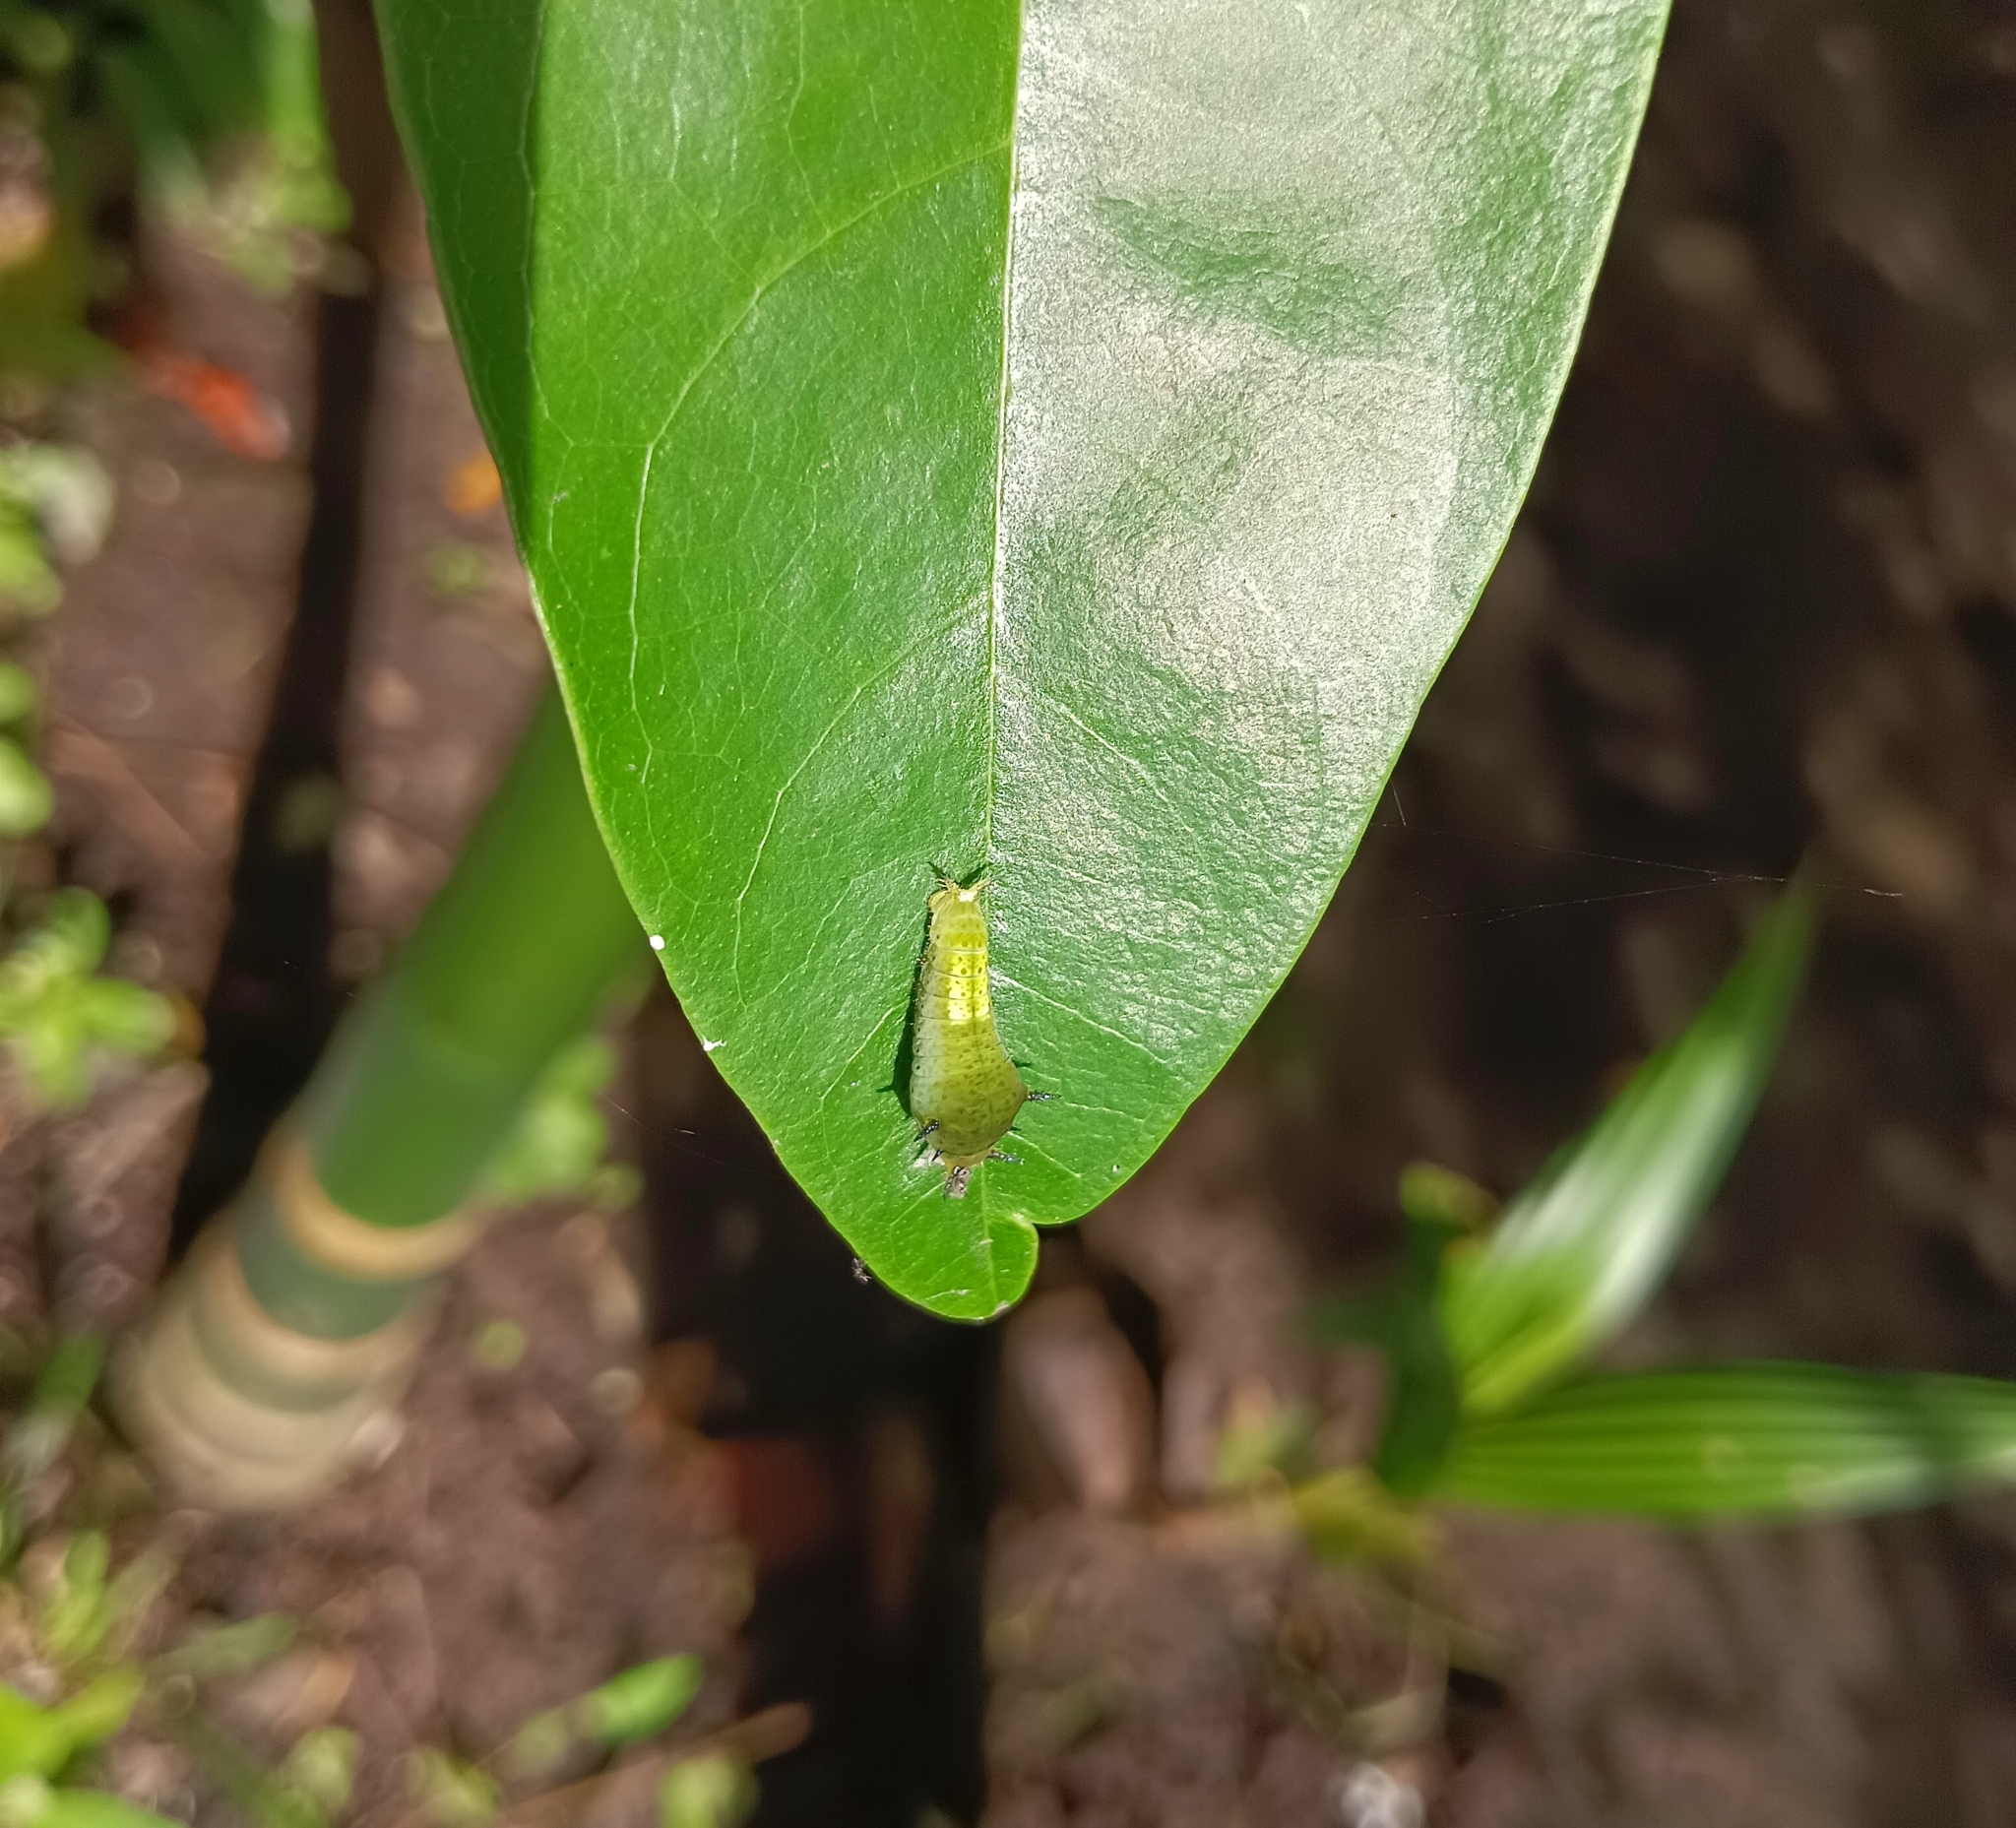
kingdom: Animalia
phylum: Arthropoda
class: Insecta
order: Lepidoptera
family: Papilionidae
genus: Graphium
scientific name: Graphium agamemnon
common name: Tailed jay
